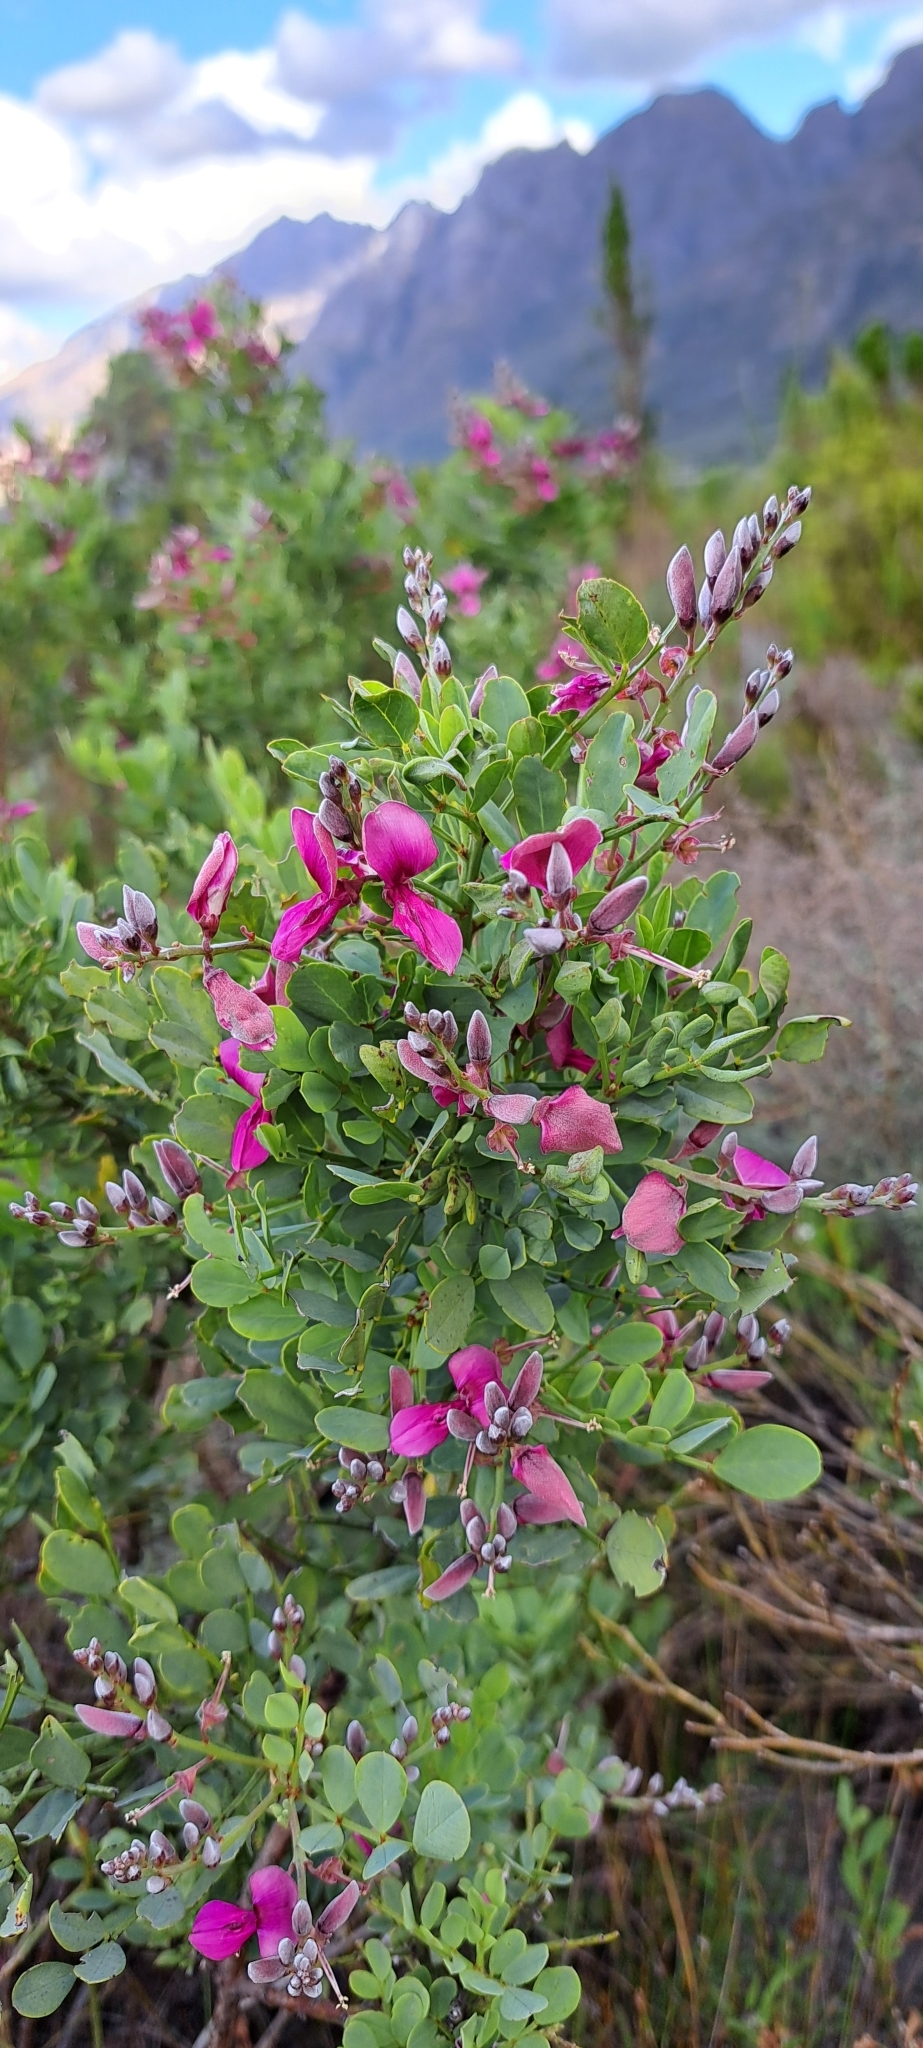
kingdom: Plantae
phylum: Tracheophyta
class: Magnoliopsida
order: Fabales
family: Fabaceae
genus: Indigofera
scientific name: Indigofera frutescens
